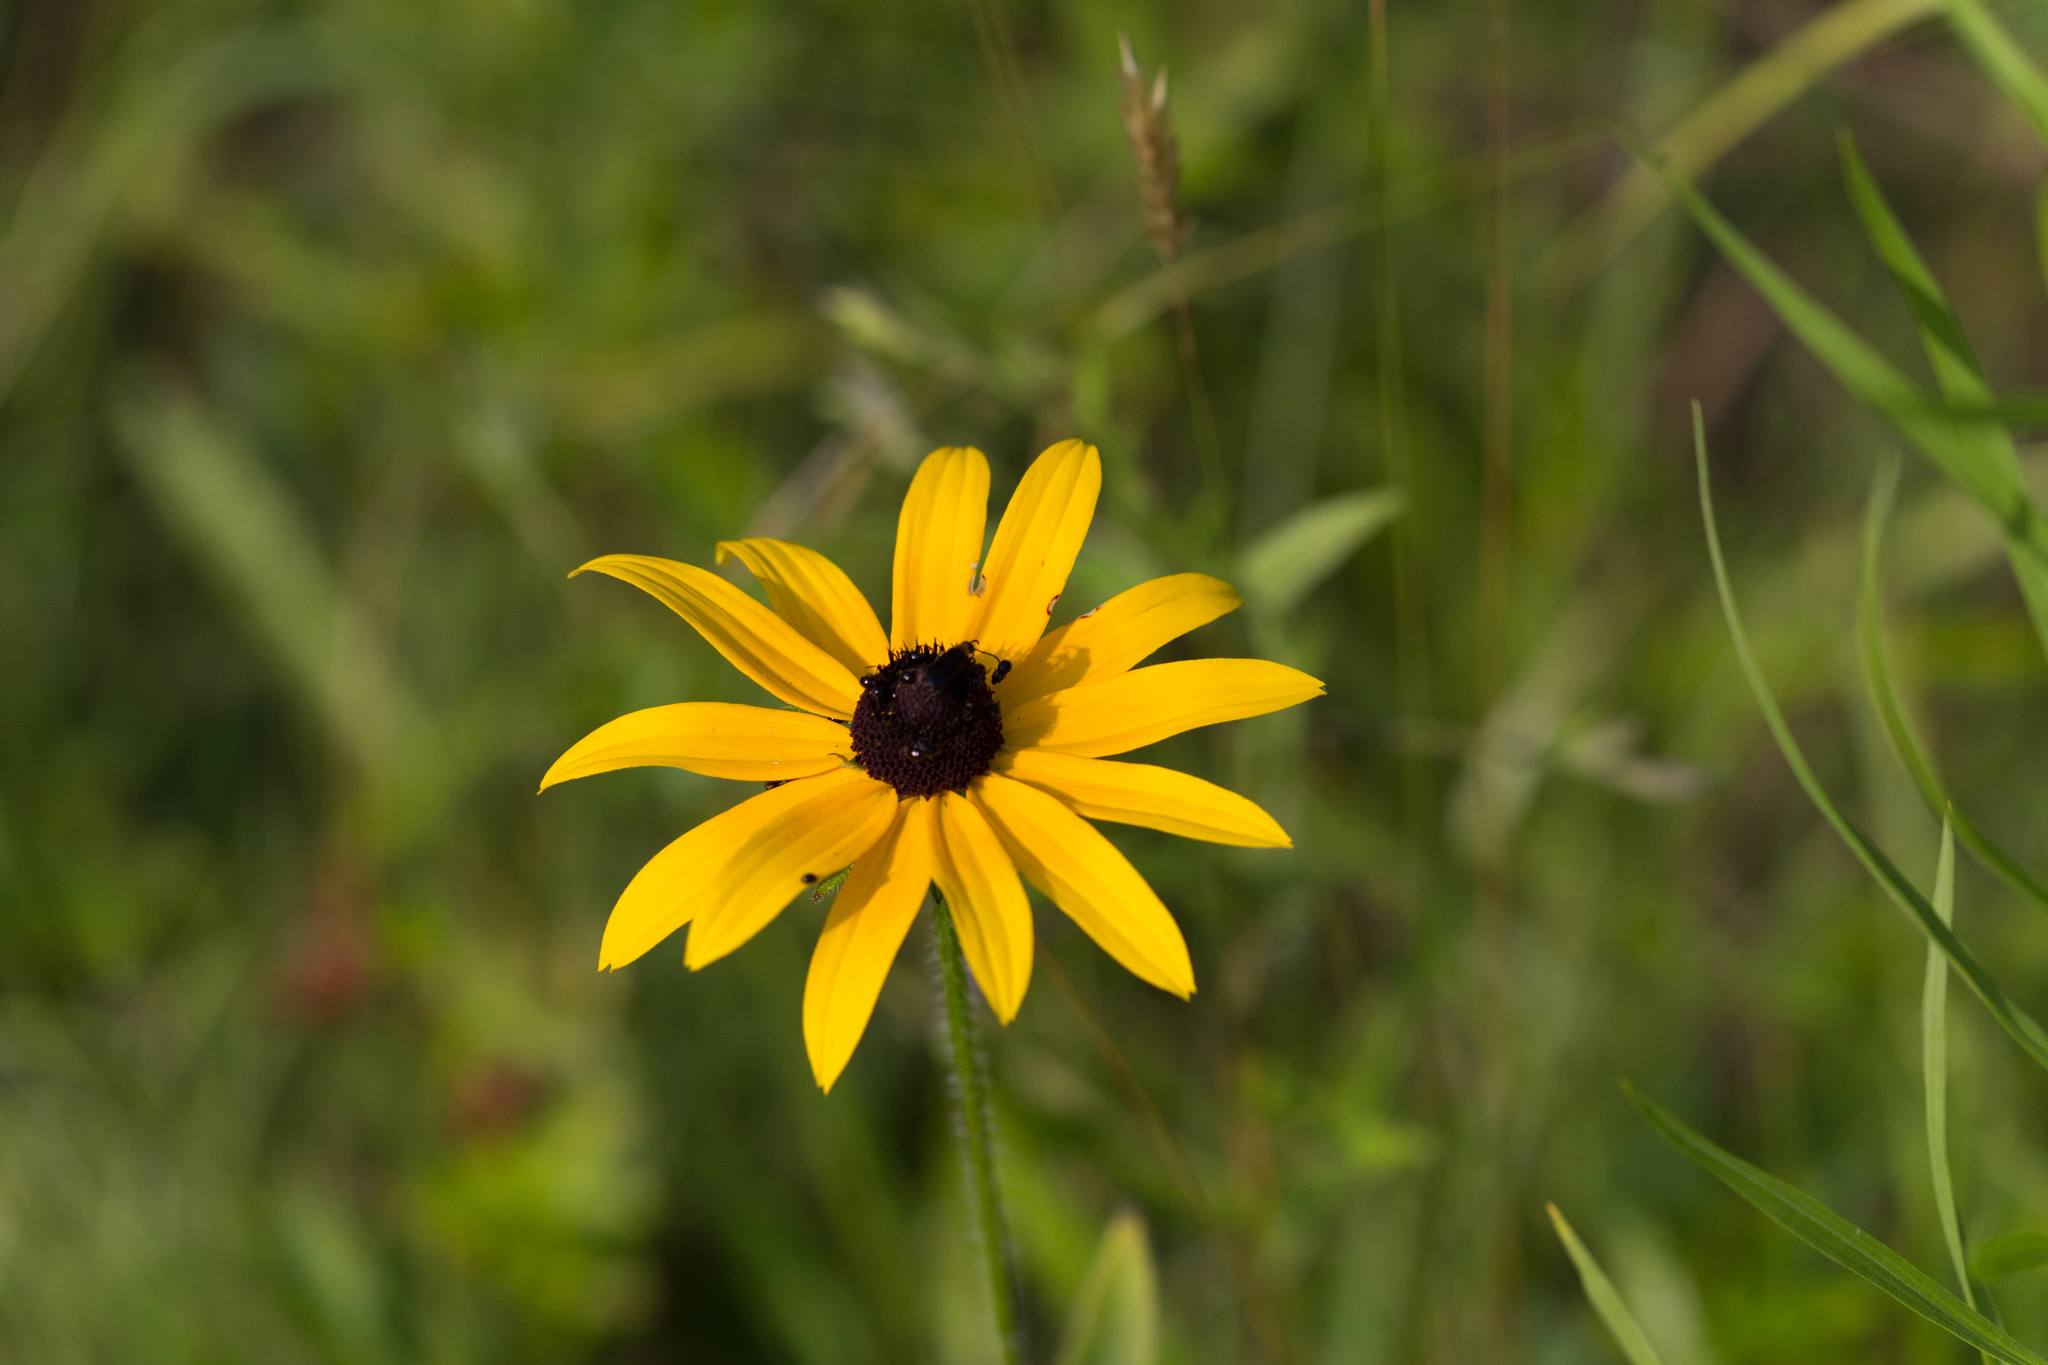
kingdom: Plantae
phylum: Tracheophyta
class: Magnoliopsida
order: Asterales
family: Asteraceae
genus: Rudbeckia
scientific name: Rudbeckia hirta
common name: Black-eyed-susan
